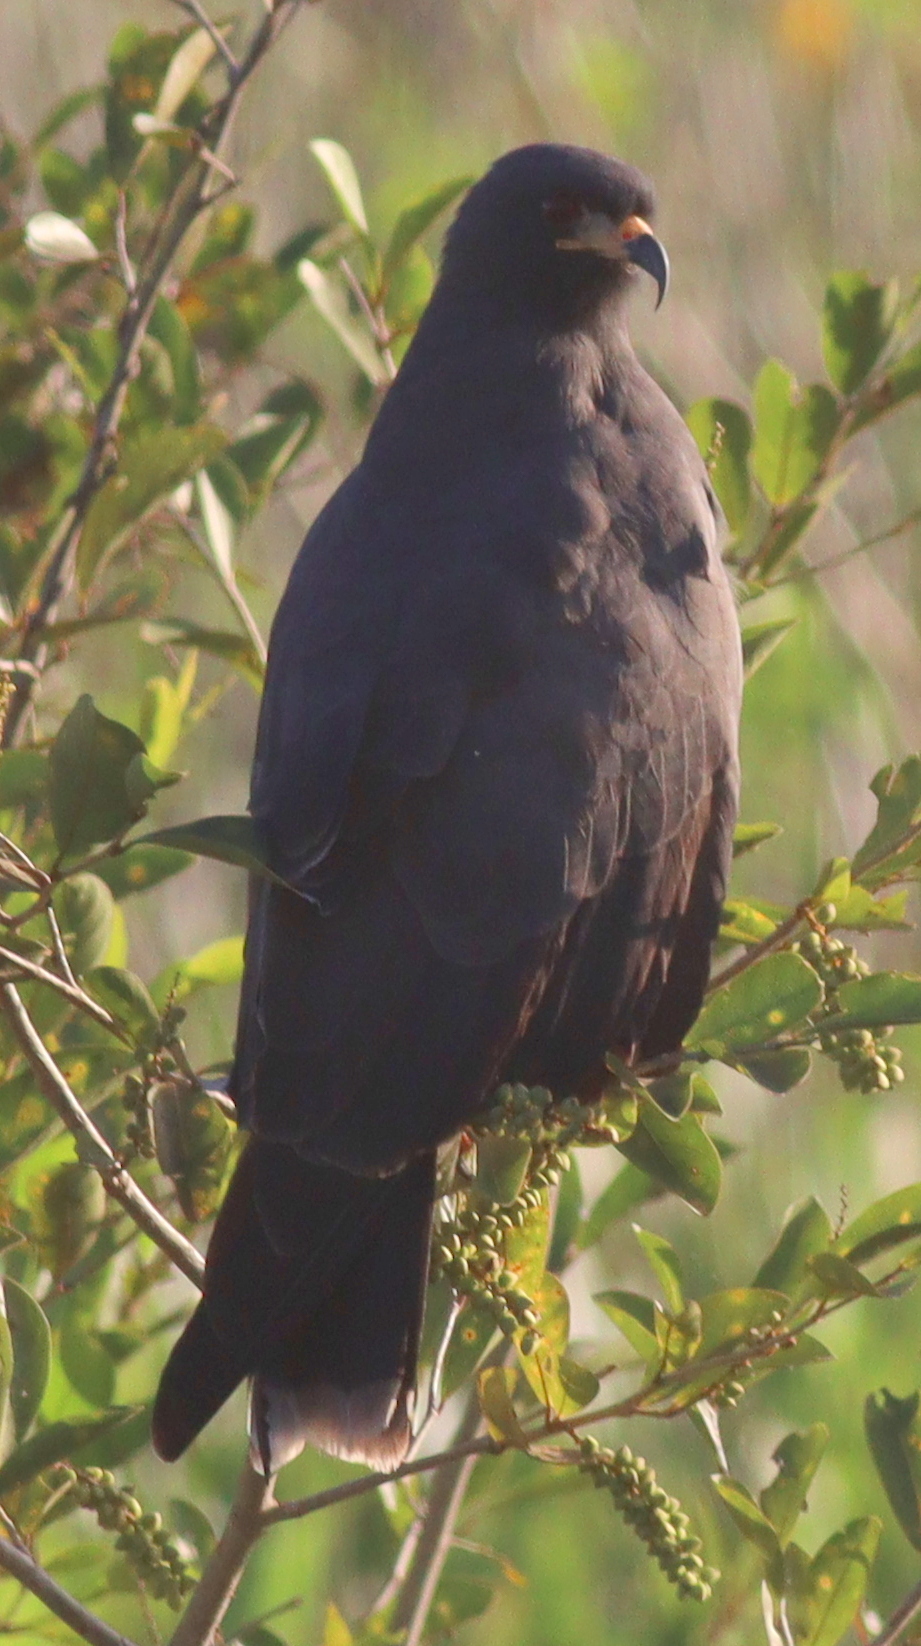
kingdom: Animalia
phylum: Chordata
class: Aves
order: Accipitriformes
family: Accipitridae
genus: Rostrhamus
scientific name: Rostrhamus sociabilis
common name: Snail kite
